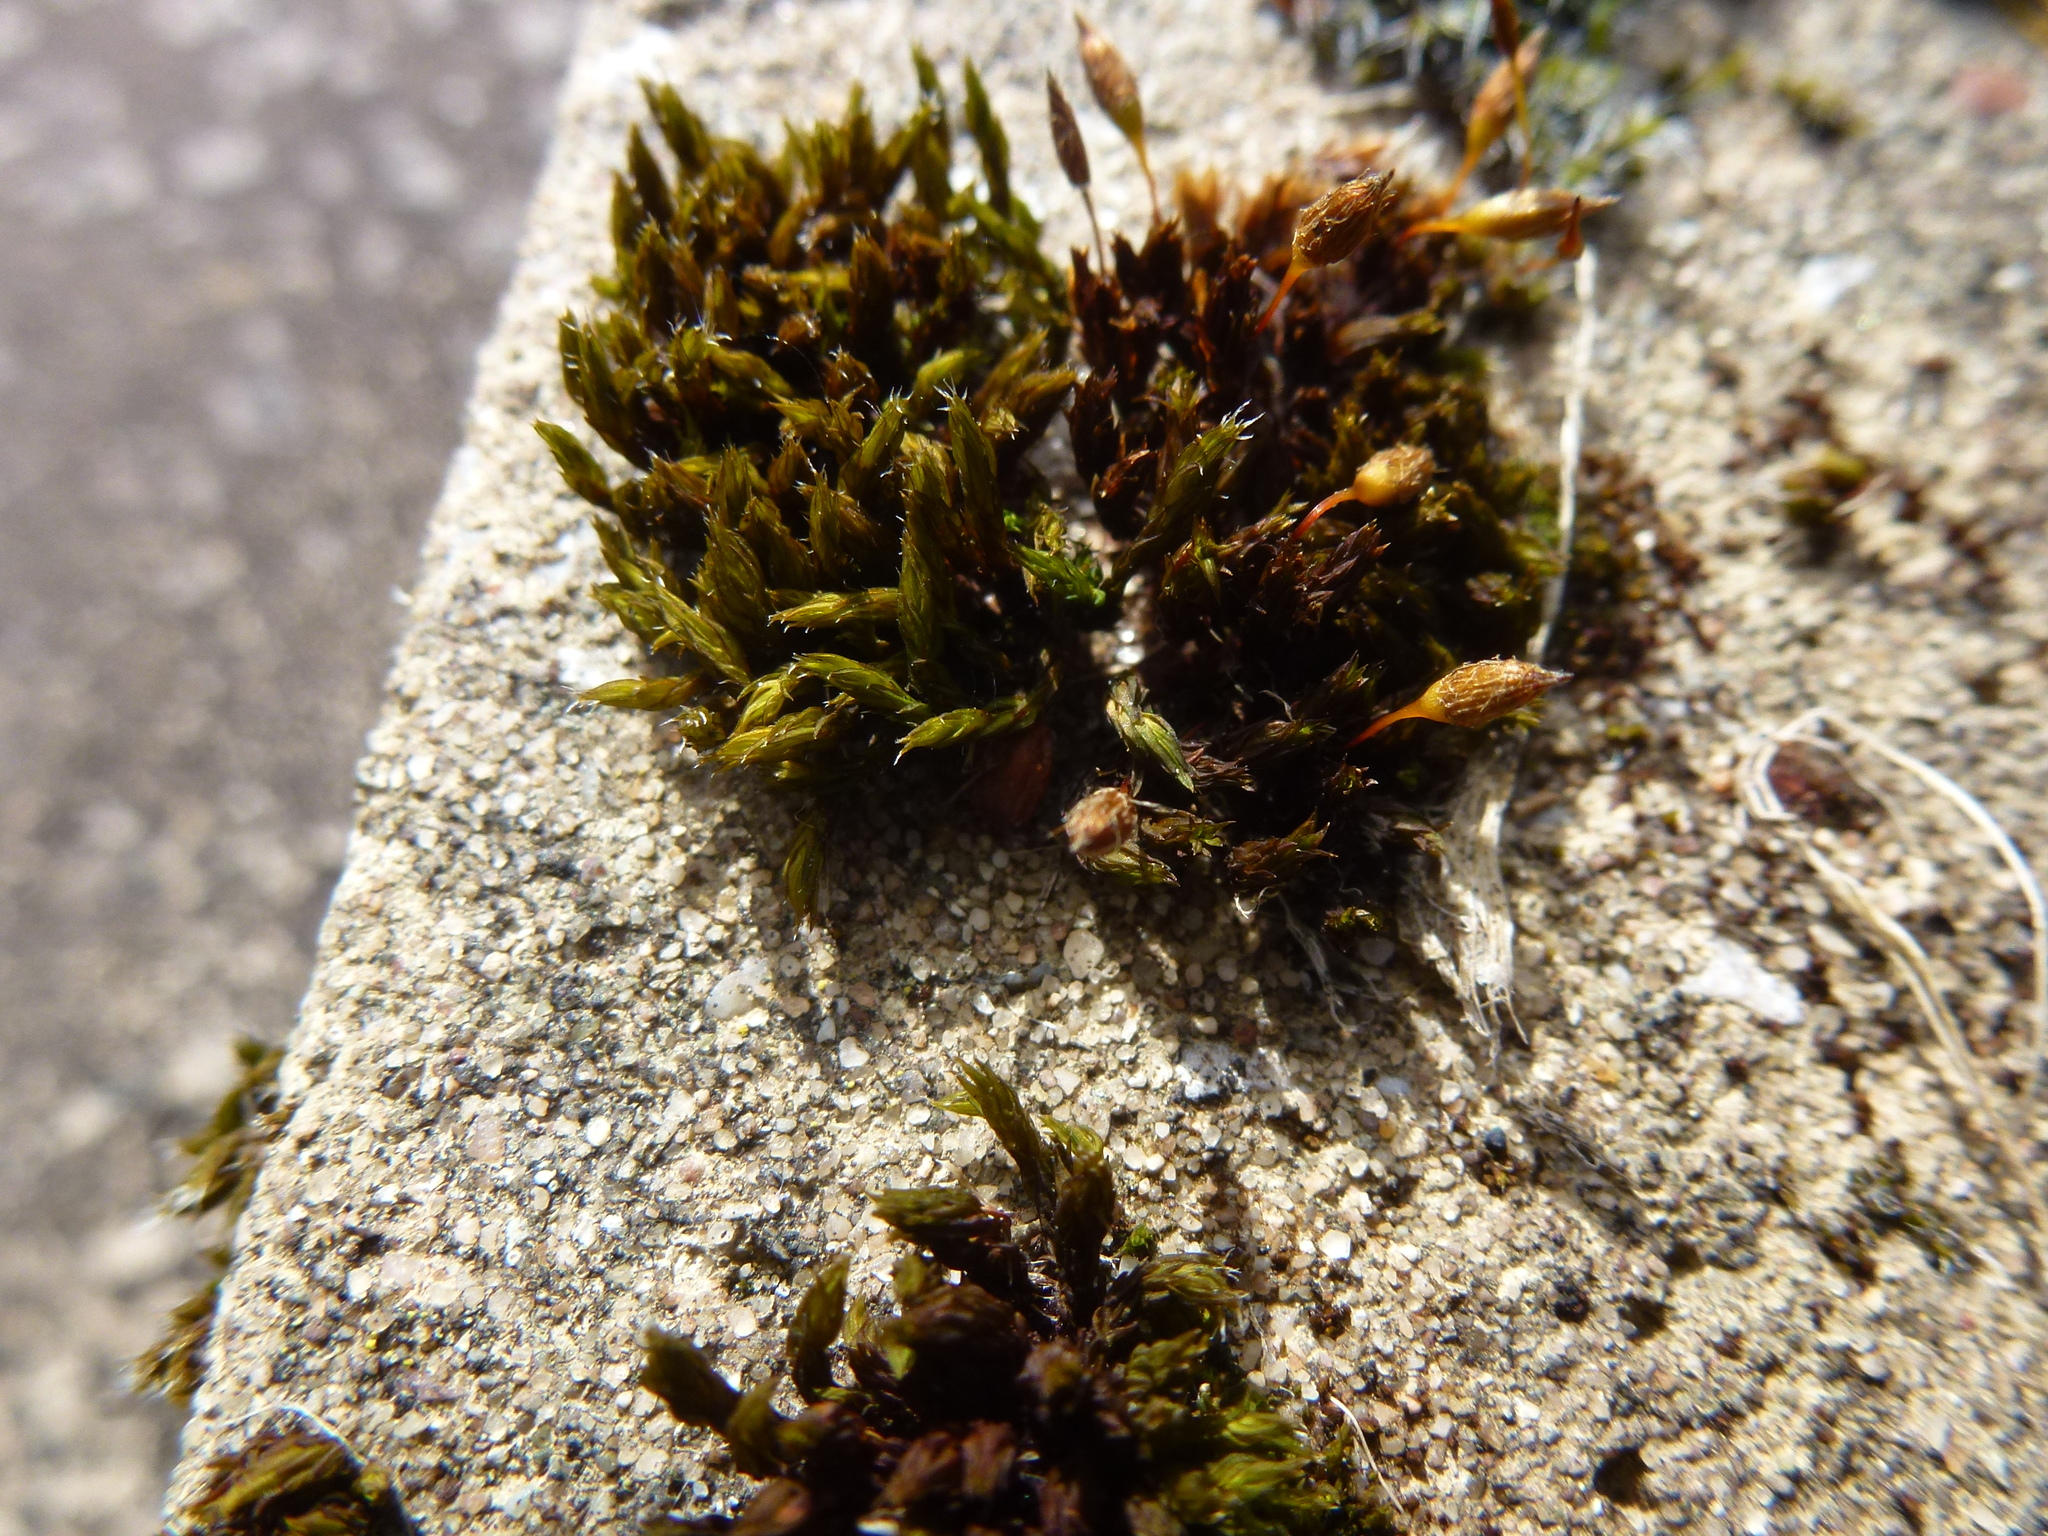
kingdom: Plantae
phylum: Bryophyta
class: Bryopsida
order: Orthotrichales
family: Orthotrichaceae
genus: Orthotrichum
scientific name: Orthotrichum anomalum
